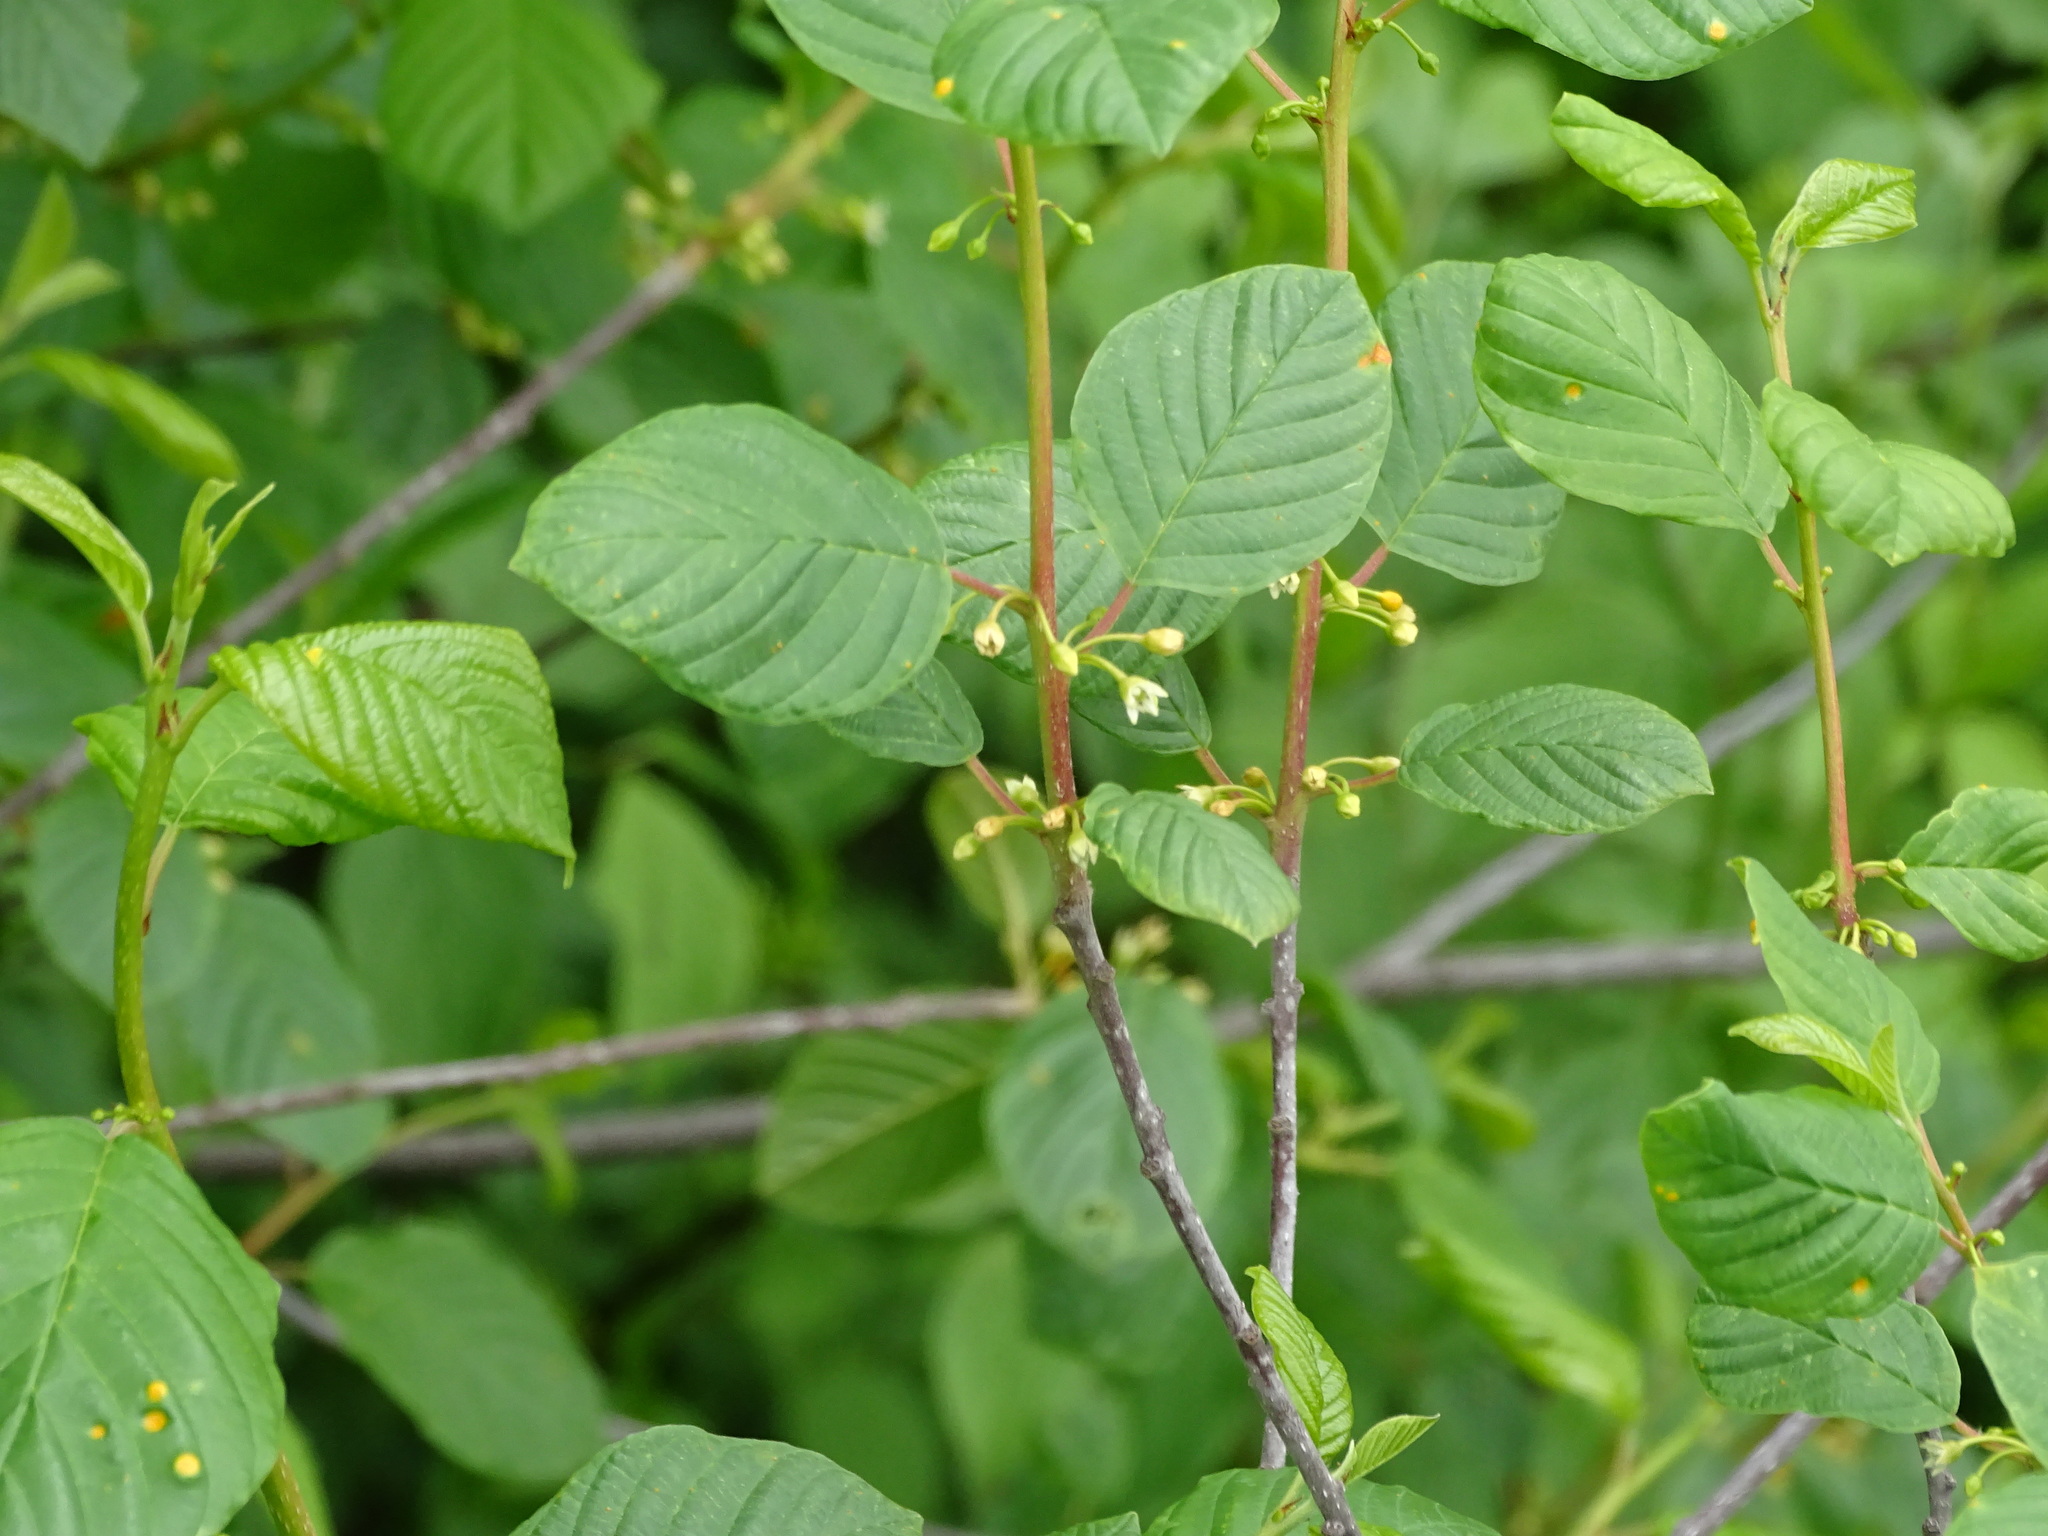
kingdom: Plantae
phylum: Tracheophyta
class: Magnoliopsida
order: Rosales
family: Rhamnaceae
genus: Frangula
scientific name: Frangula alnus
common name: Alder buckthorn
